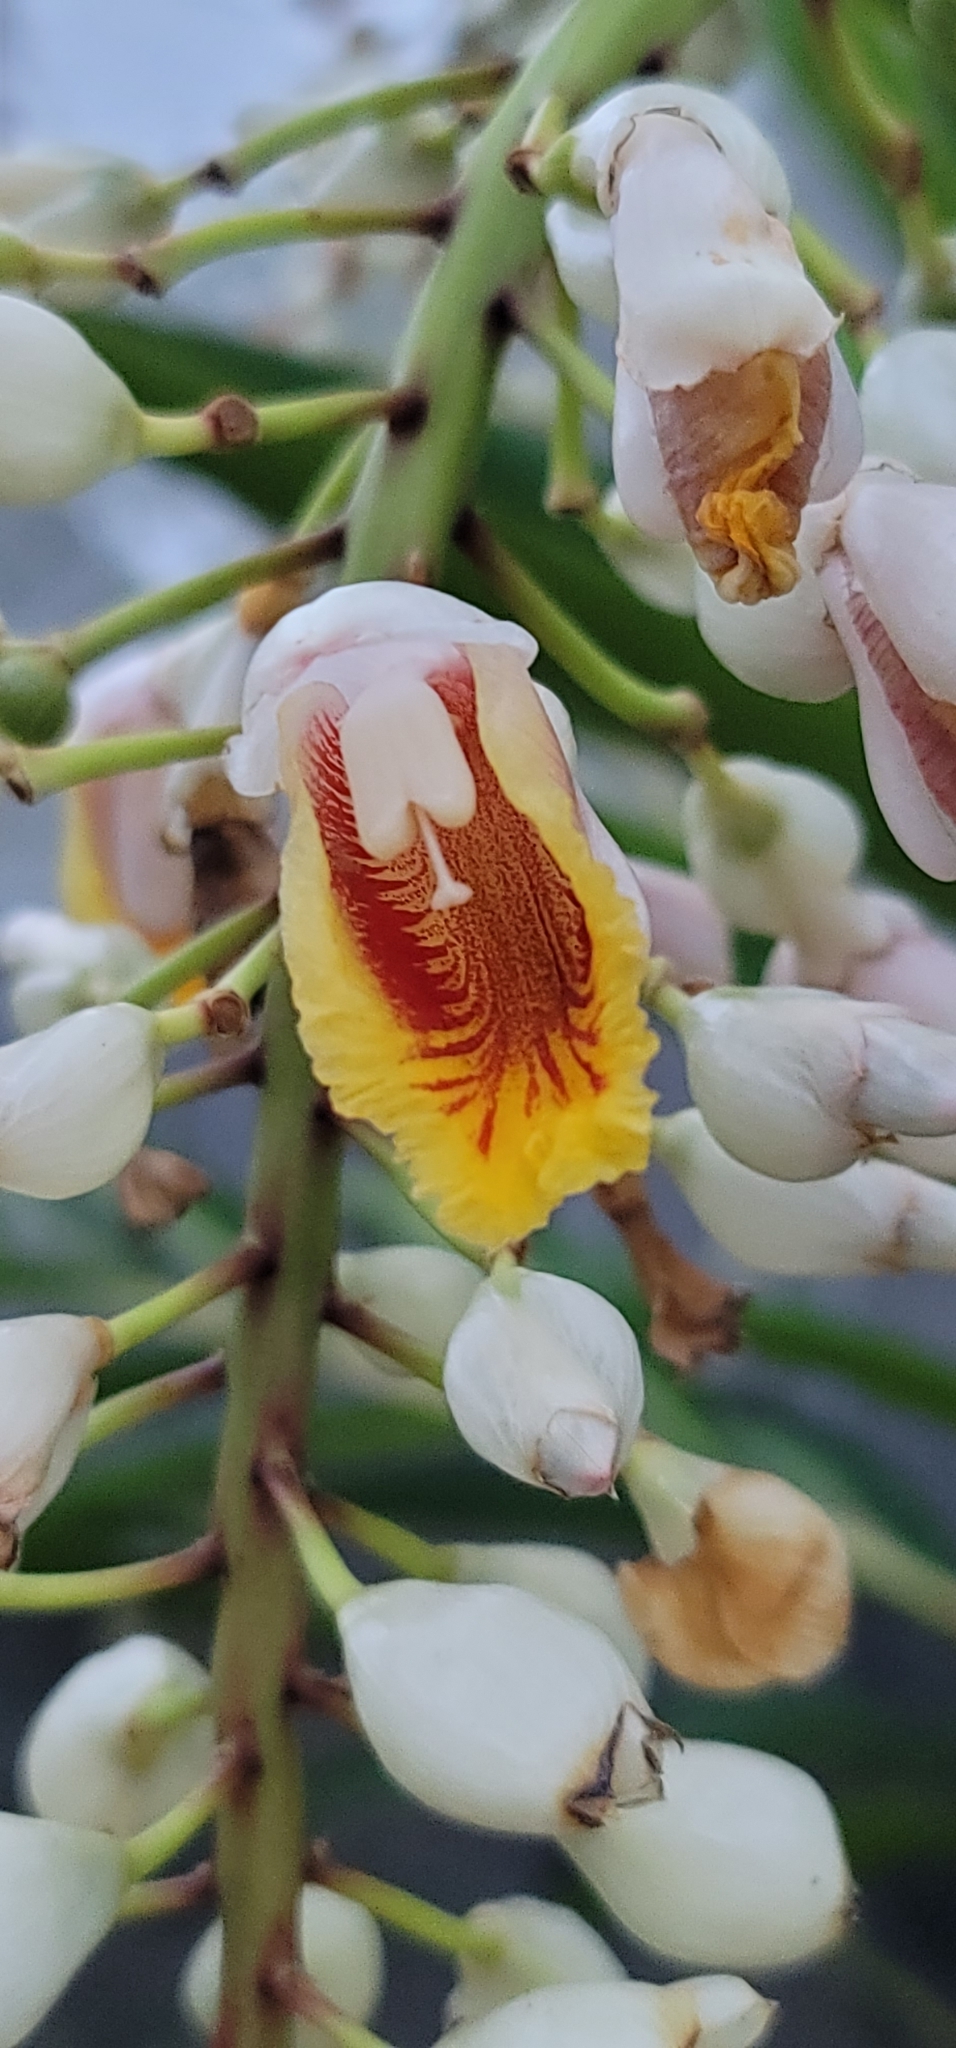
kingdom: Plantae
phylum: Tracheophyta
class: Liliopsida
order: Zingiberales
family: Zingiberaceae
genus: Alpinia
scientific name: Alpinia zerumbet
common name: Shellplant
